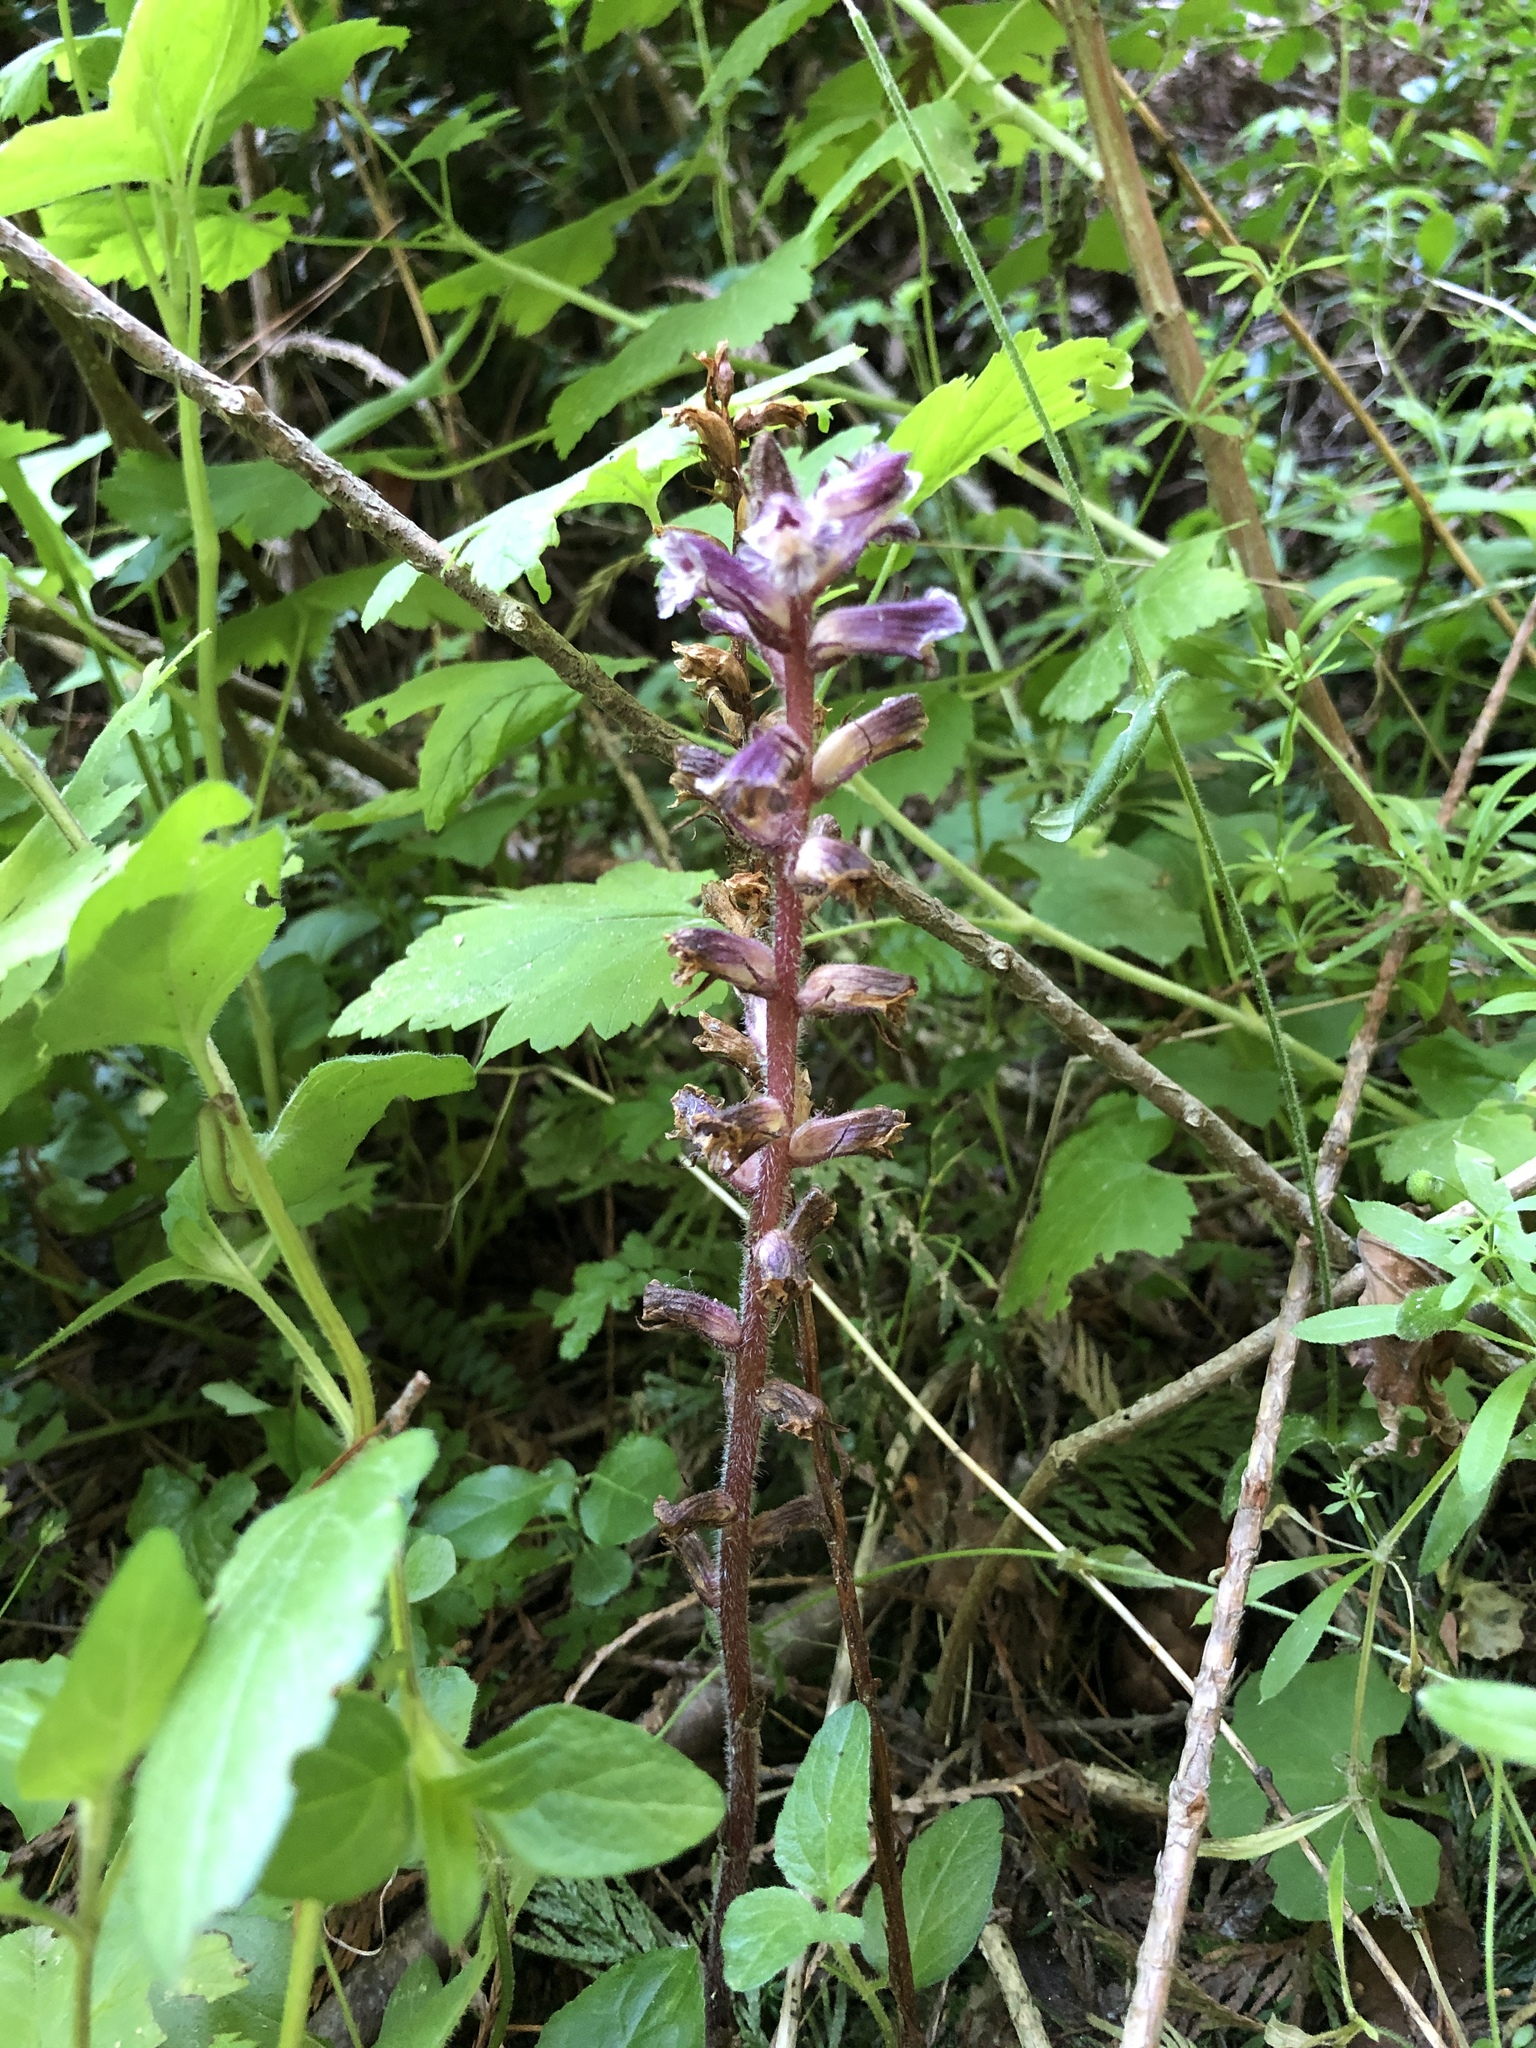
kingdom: Plantae
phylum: Tracheophyta
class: Magnoliopsida
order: Lamiales
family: Orobanchaceae
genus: Orobanche
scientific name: Orobanche minor
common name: Common broomrape
